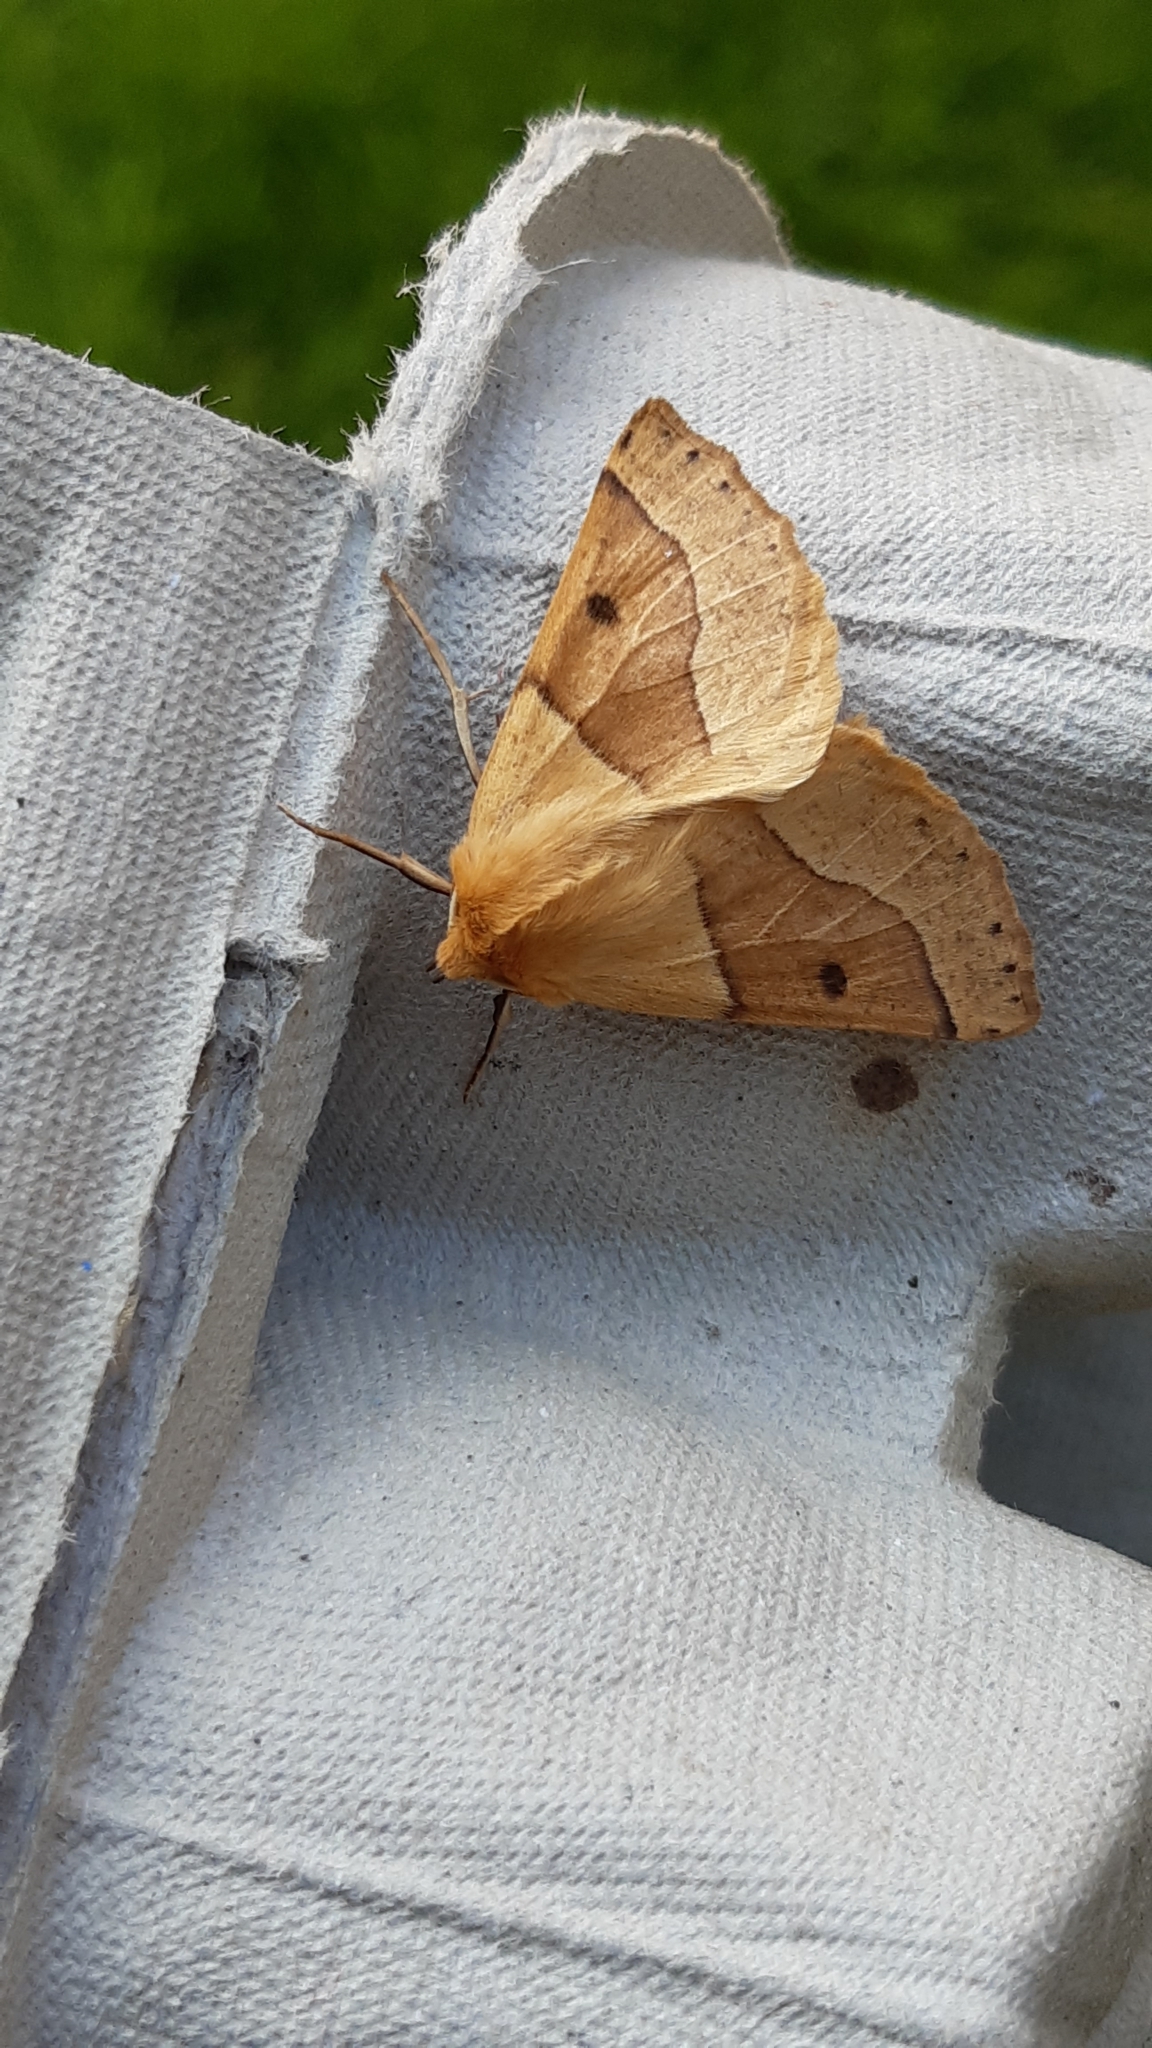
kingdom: Animalia
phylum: Arthropoda
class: Insecta
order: Lepidoptera
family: Geometridae
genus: Crocallis
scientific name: Crocallis elinguaria
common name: Scalloped oak
